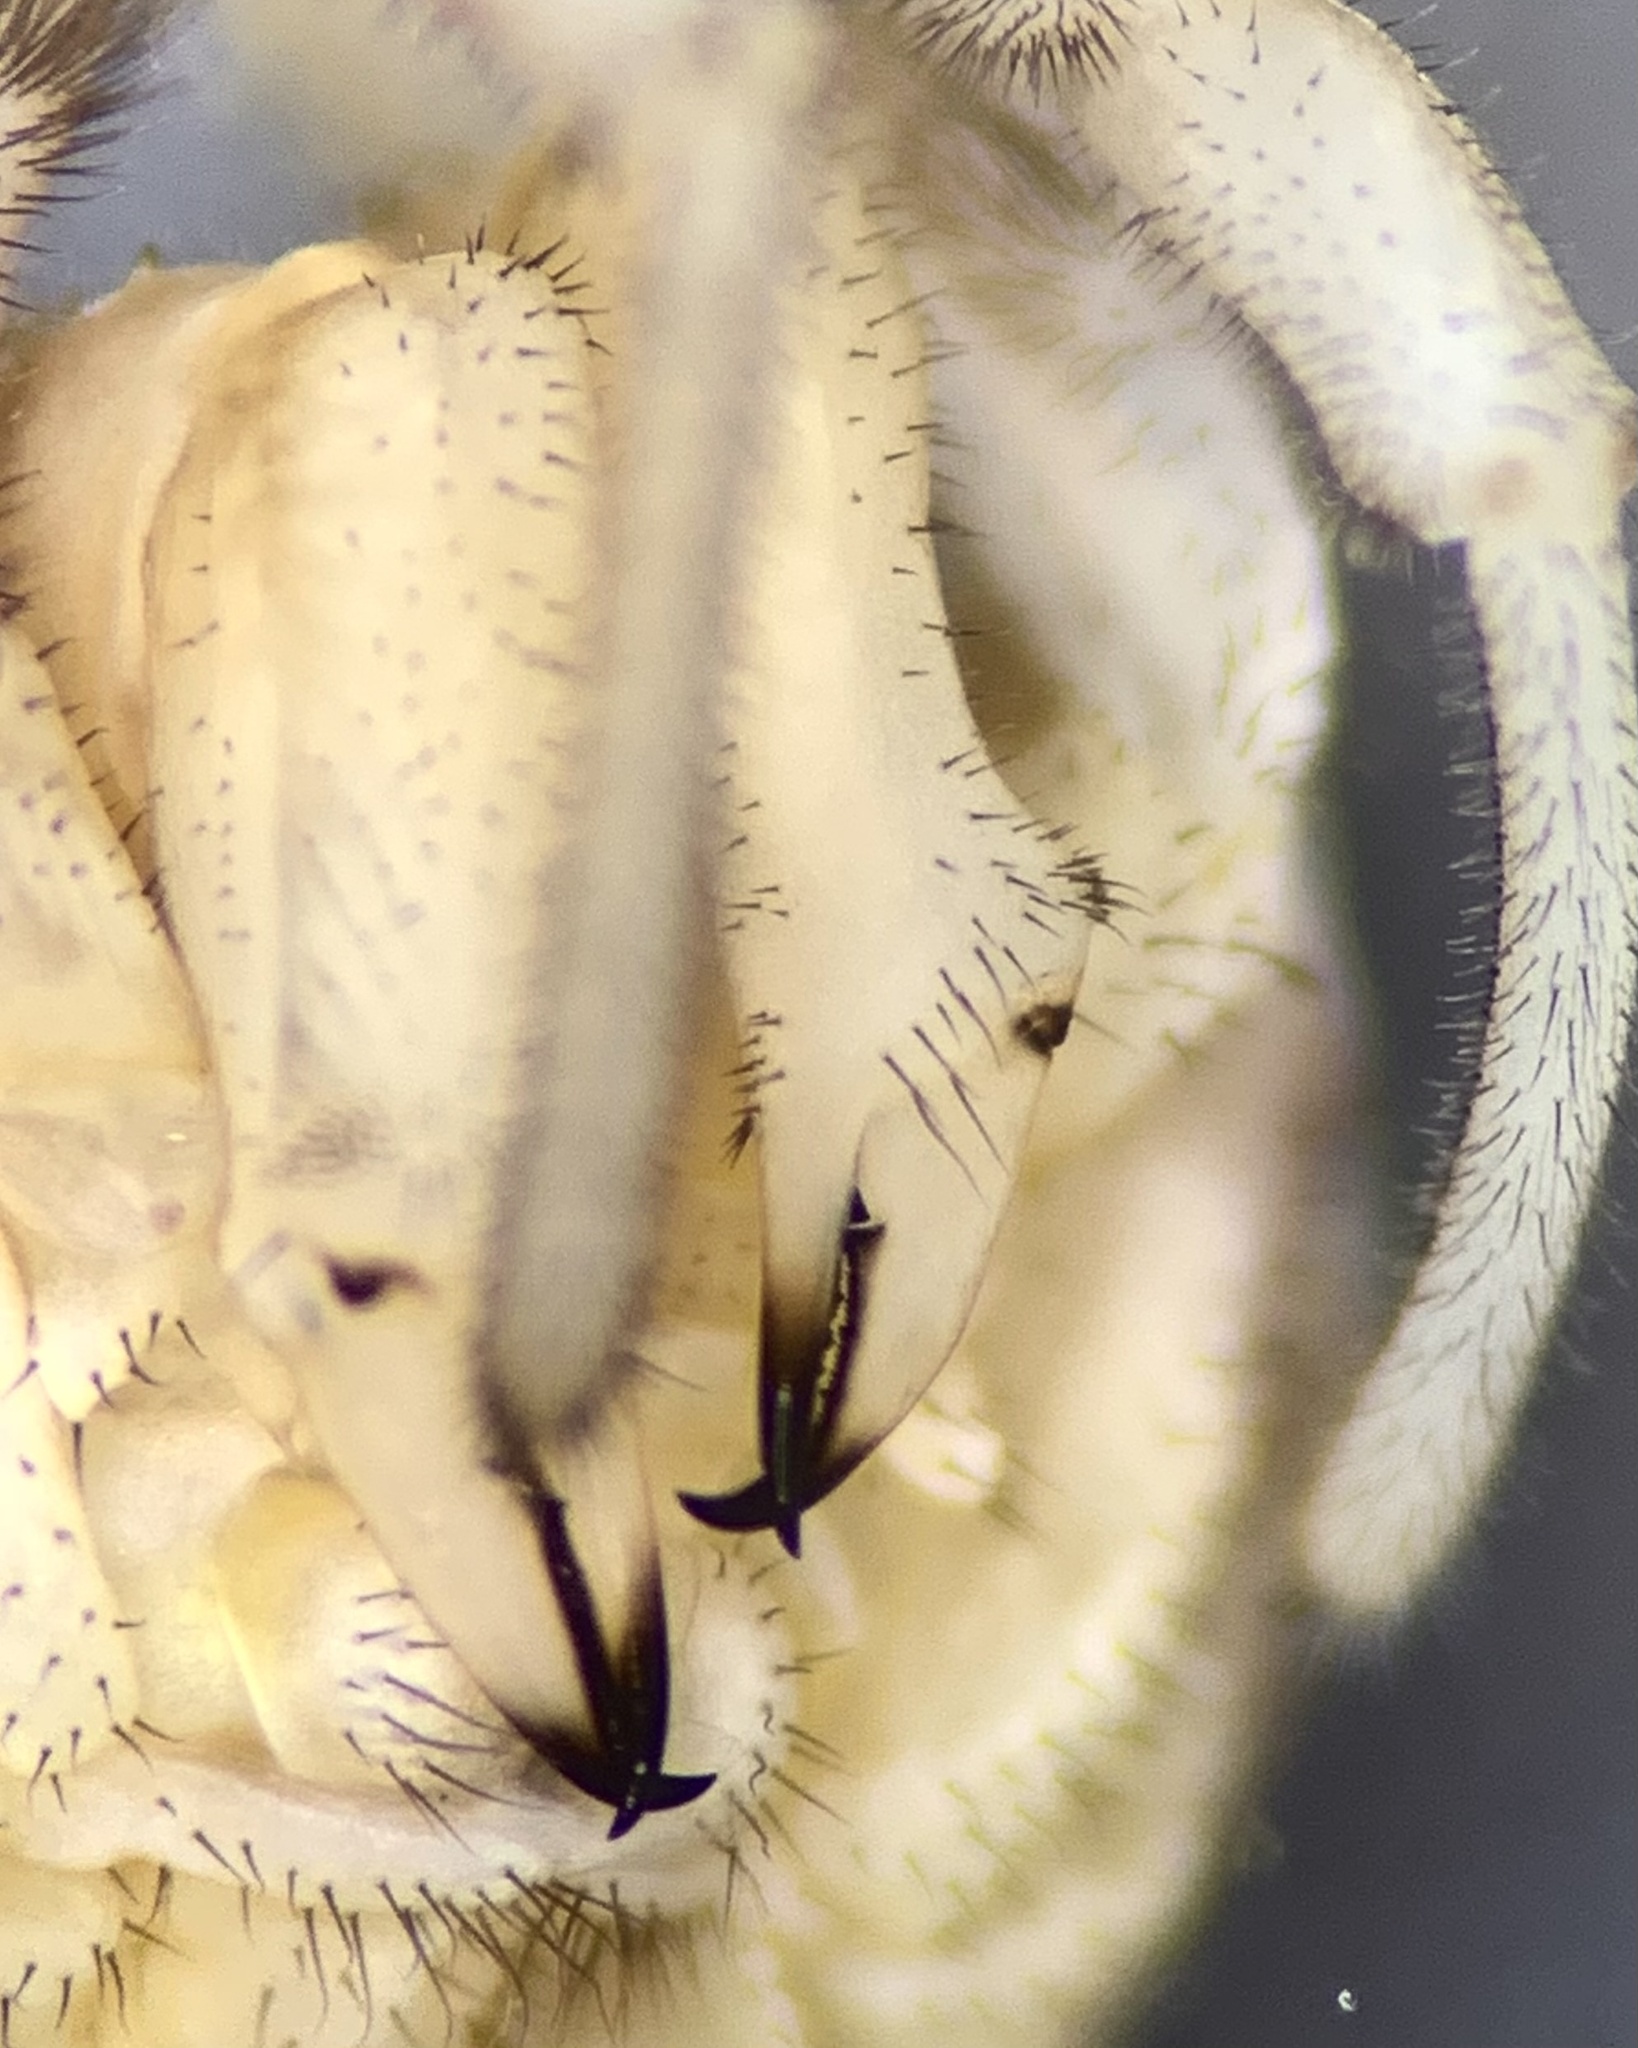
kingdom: Animalia
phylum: Arthropoda
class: Arachnida
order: Opiliones
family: Phalangiidae
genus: Dasylobus
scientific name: Dasylobus graniferus
